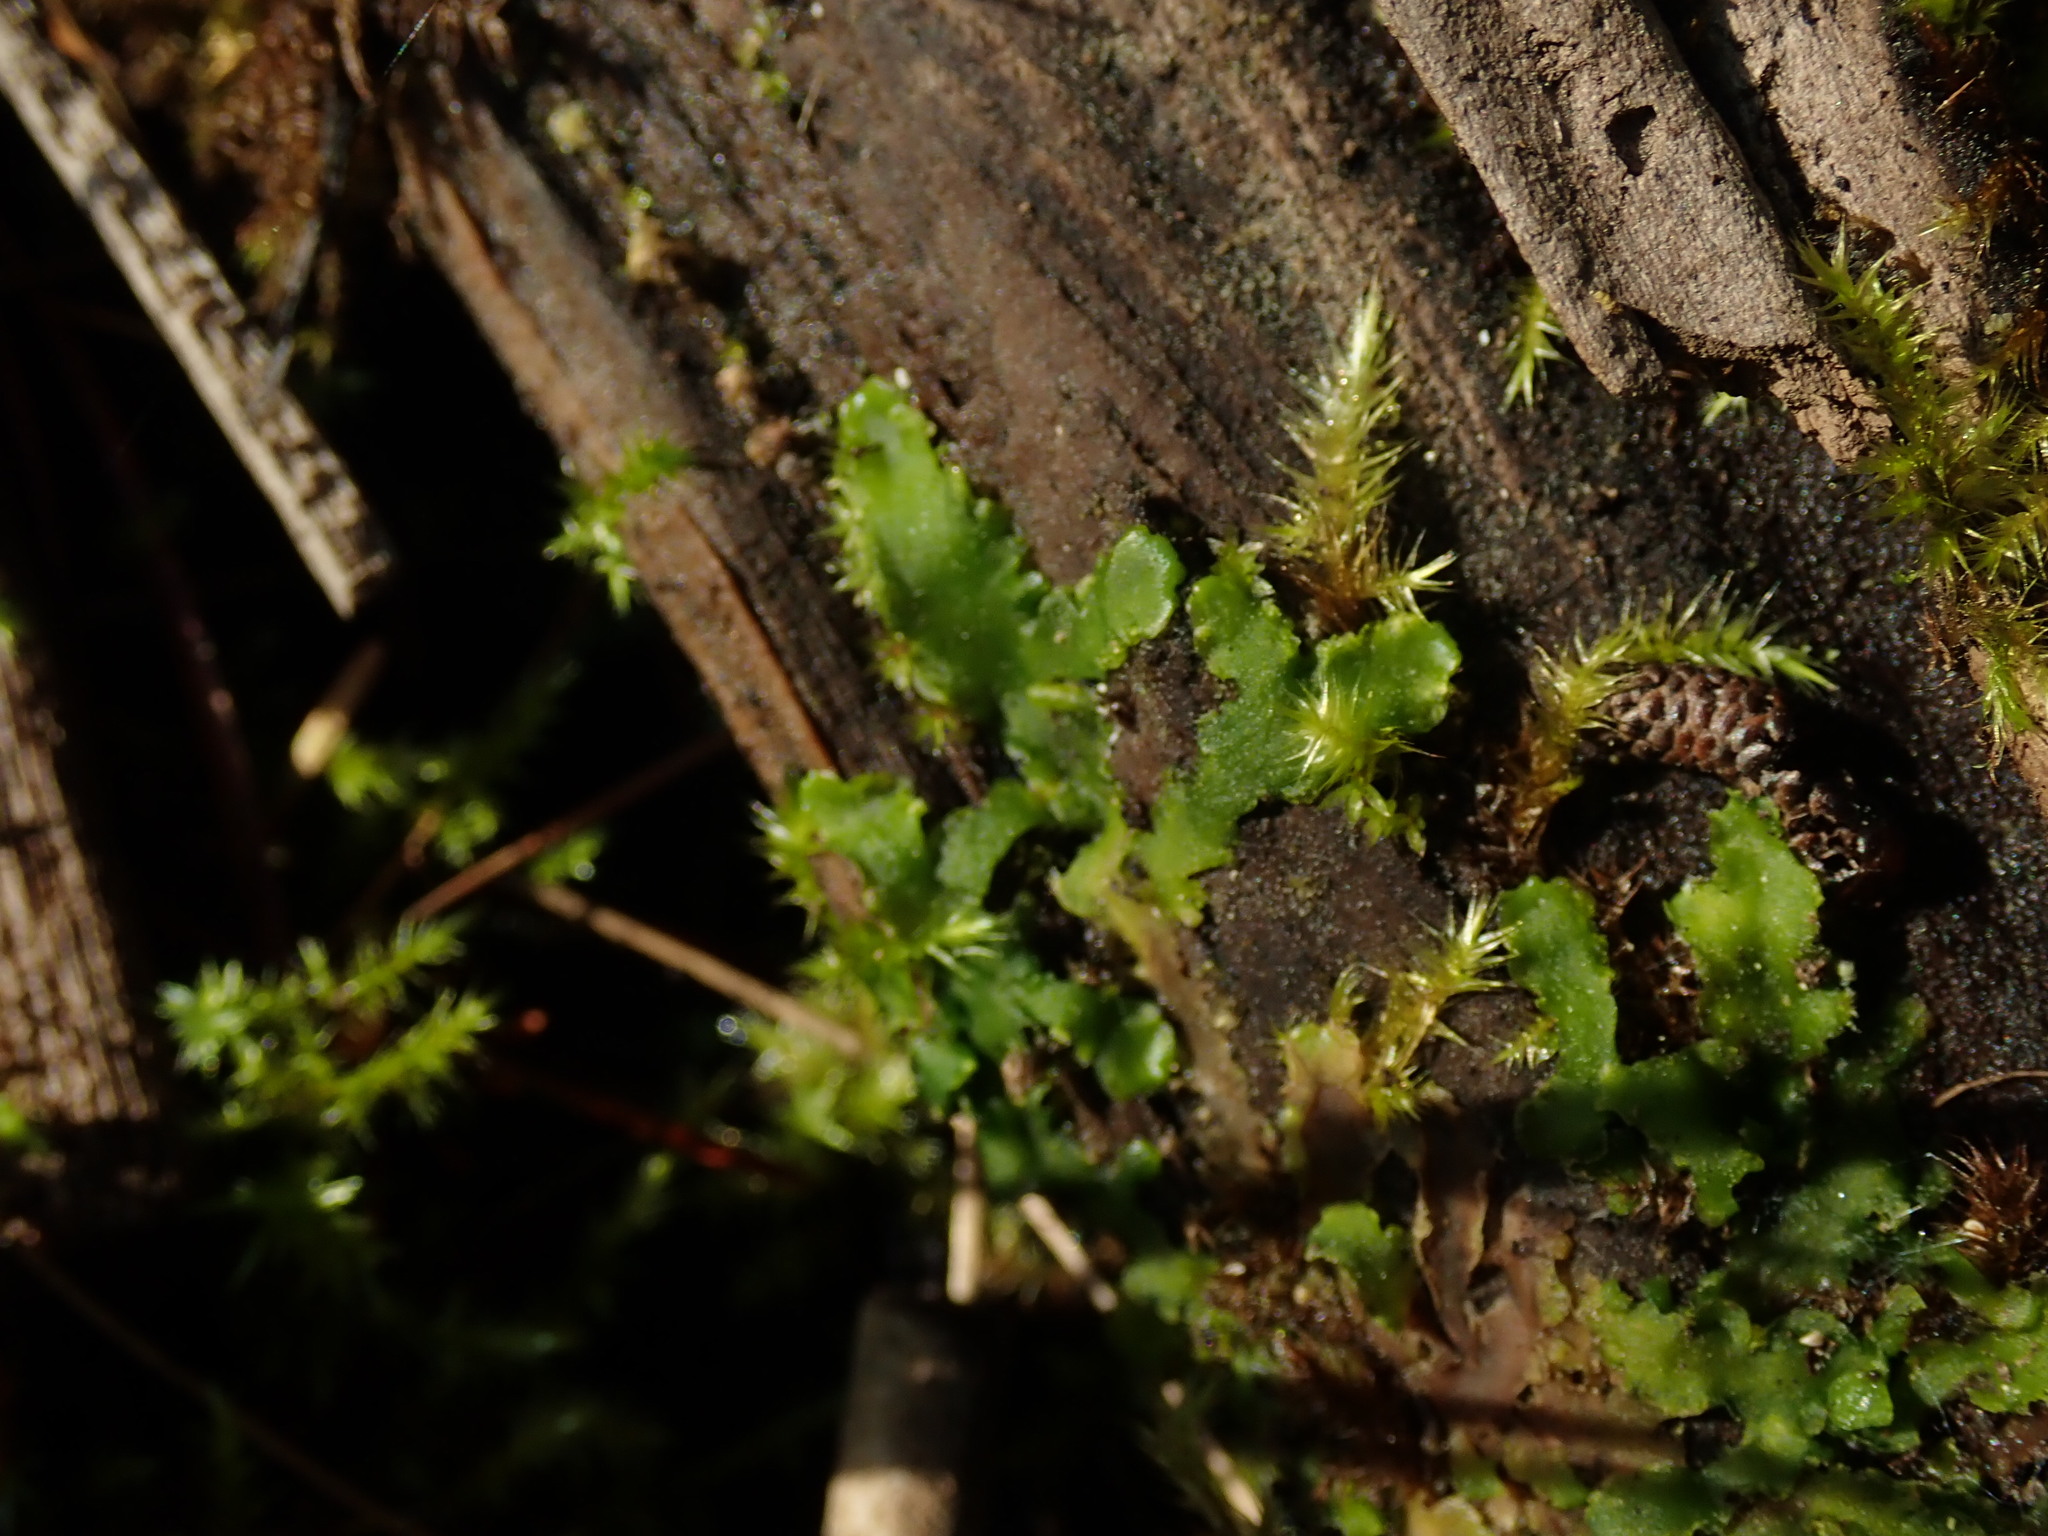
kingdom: Plantae
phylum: Marchantiophyta
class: Jungermanniopsida
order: Metzgeriales
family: Aneuraceae
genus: Aneura
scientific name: Aneura pinguis
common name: Common greasewort
